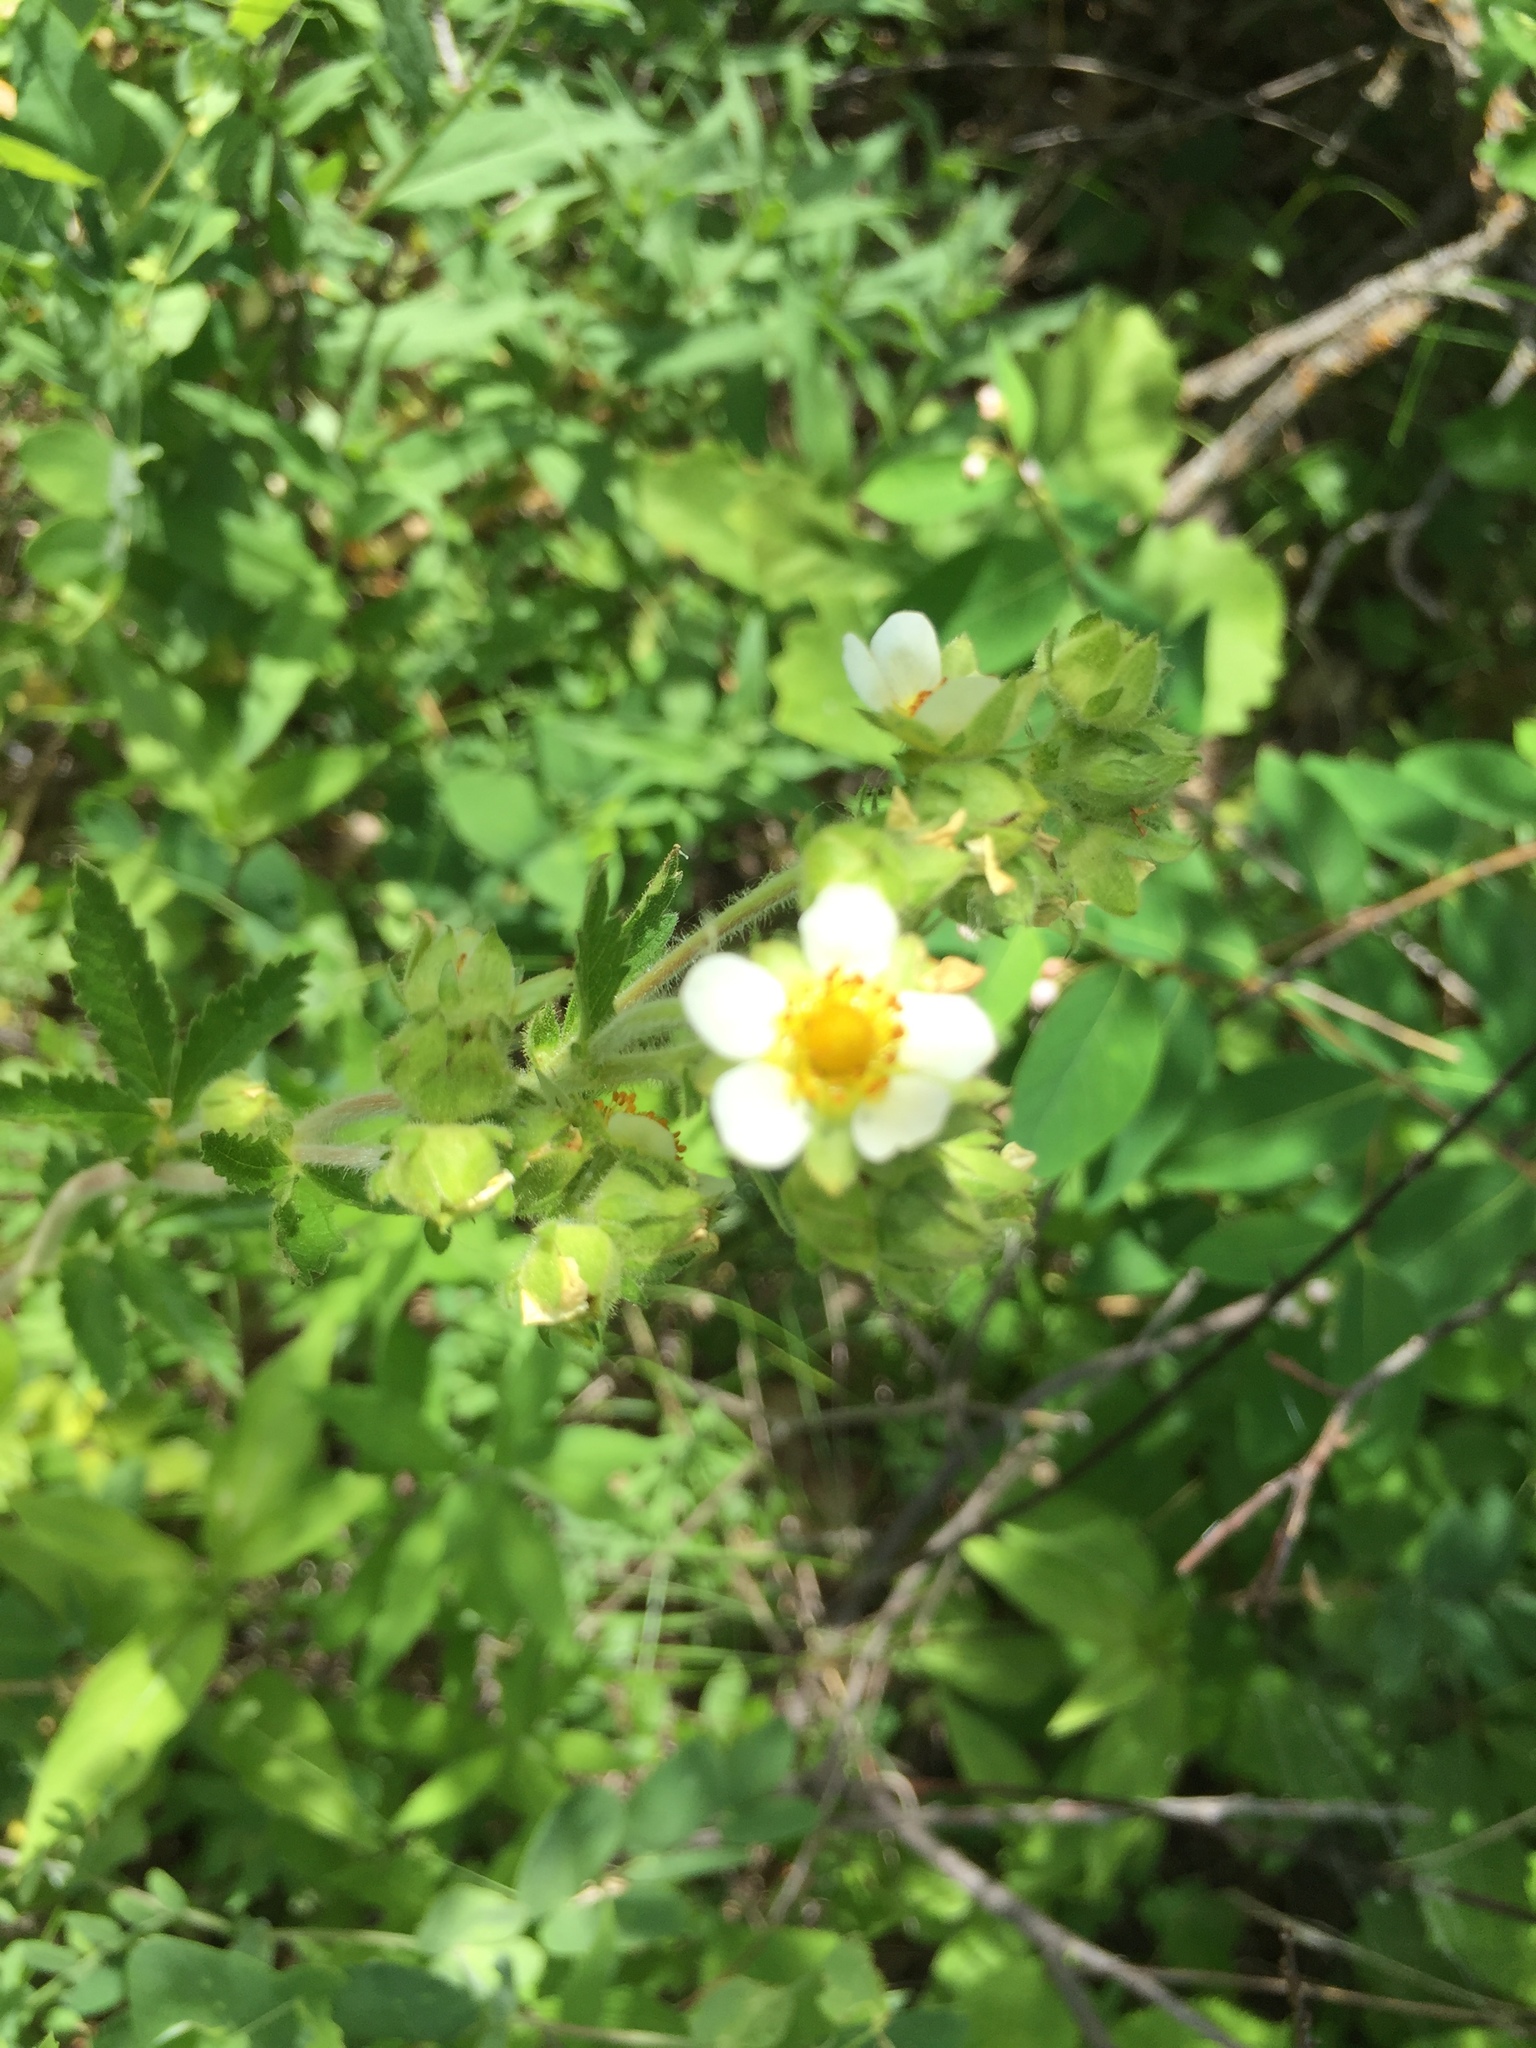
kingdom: Plantae
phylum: Tracheophyta
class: Magnoliopsida
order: Rosales
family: Rosaceae
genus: Drymocallis
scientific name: Drymocallis arguta
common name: Tall cinquefoil
